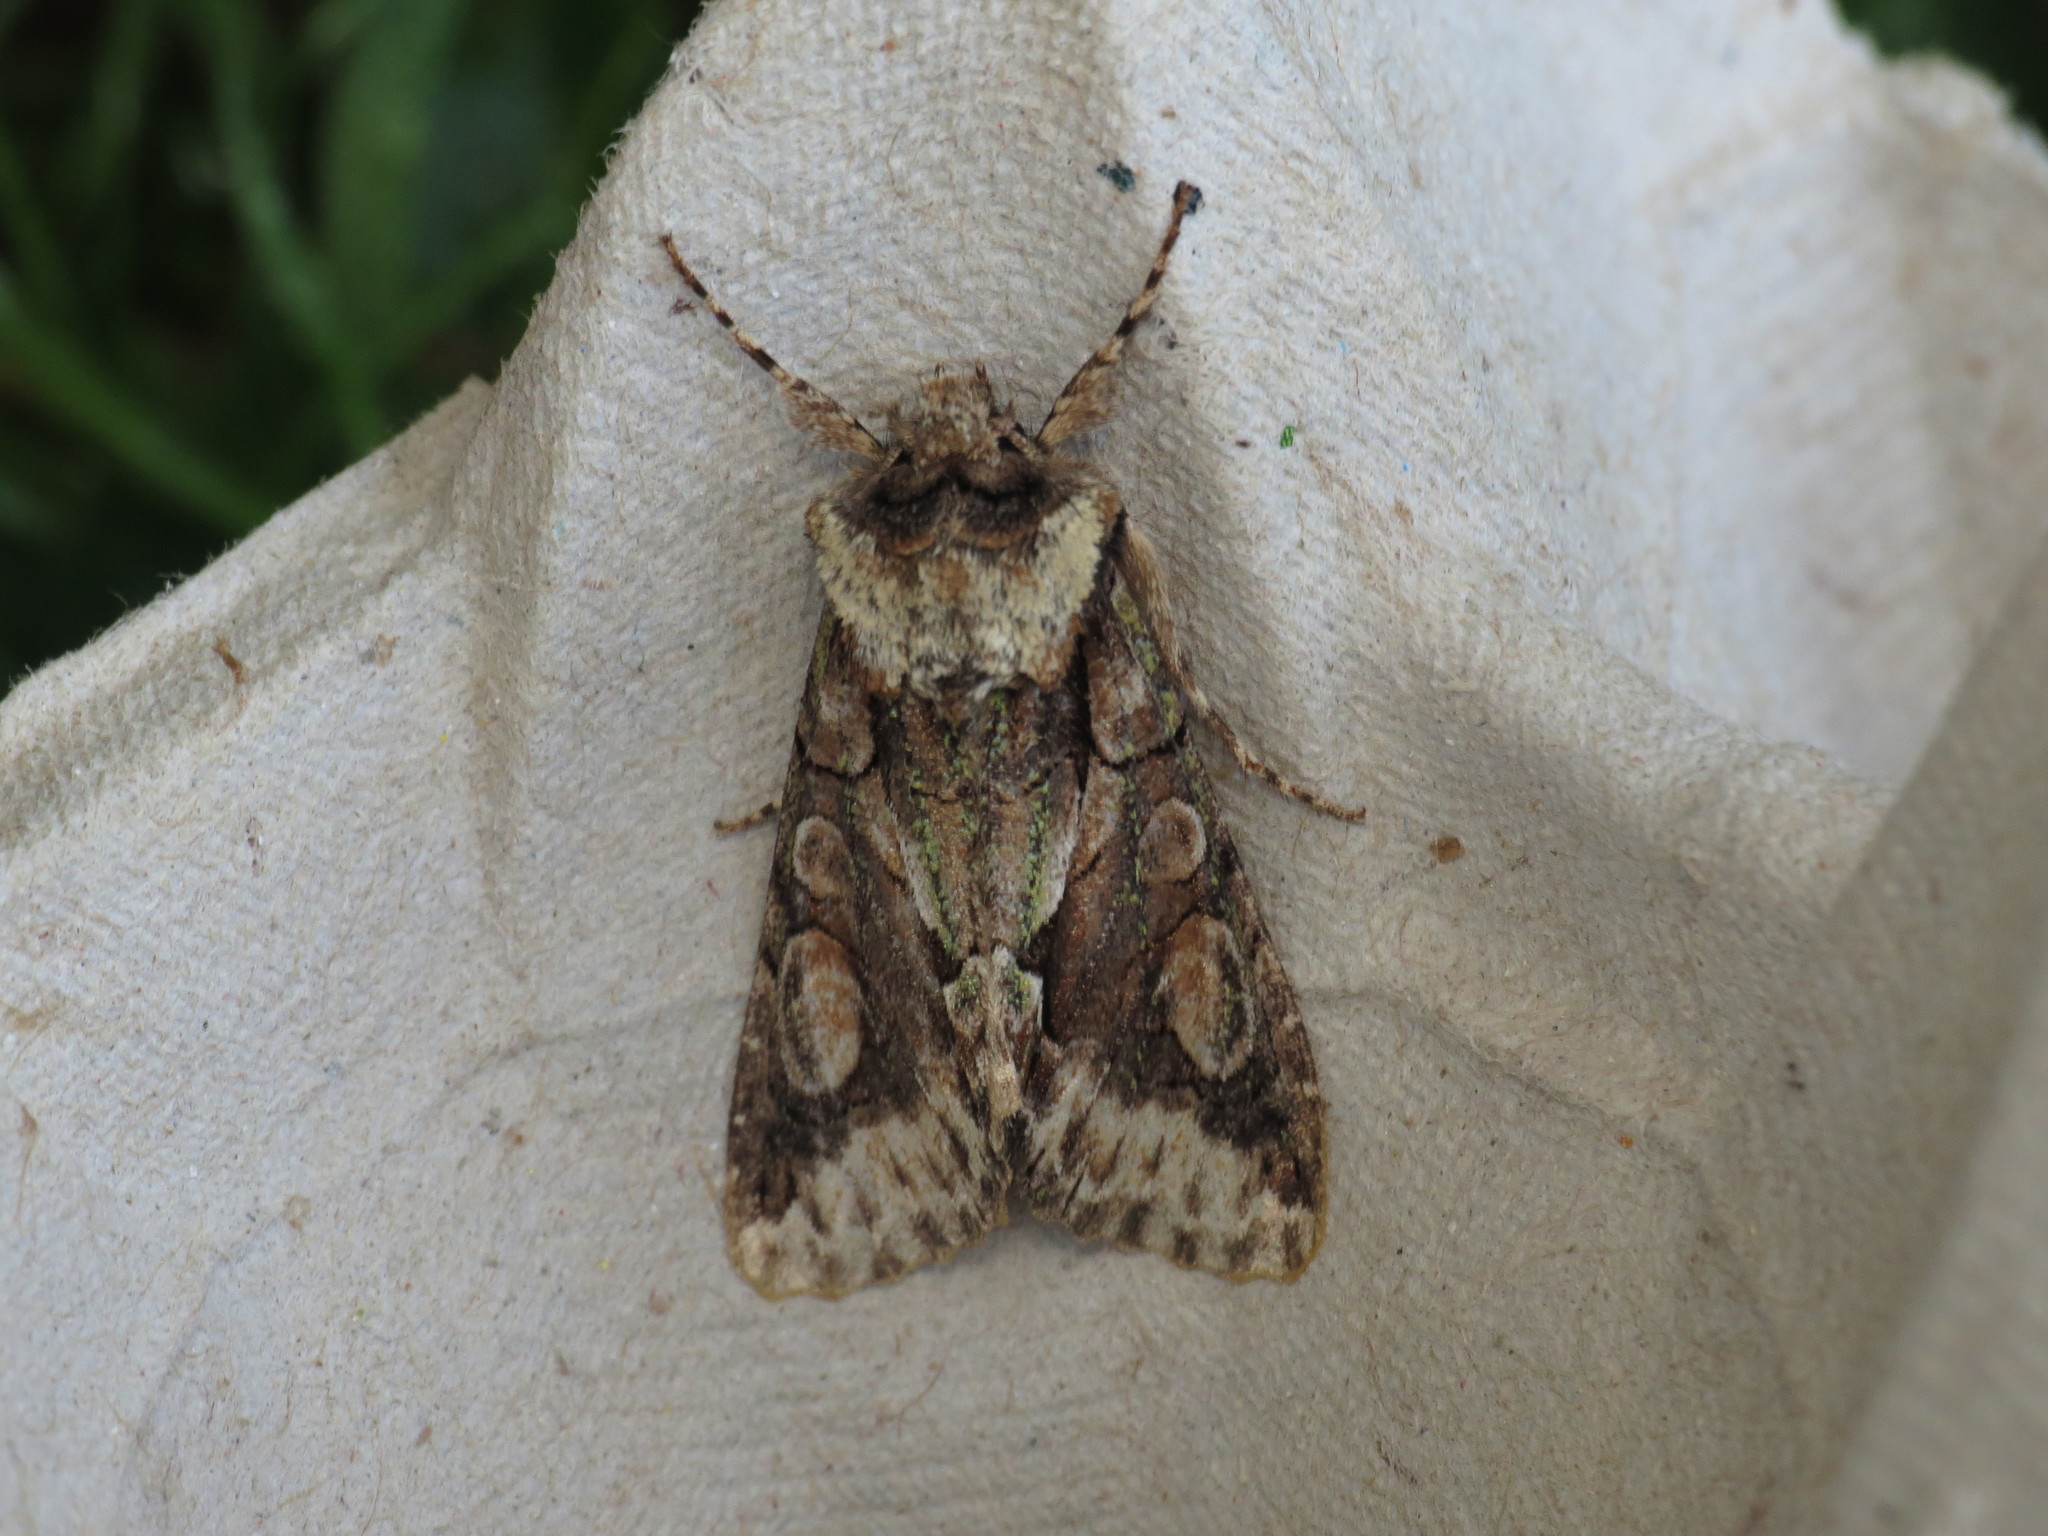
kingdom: Animalia
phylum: Arthropoda
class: Insecta
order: Lepidoptera
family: Noctuidae
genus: Allophyes
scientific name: Allophyes oxyacanthae
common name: Green-brindled crescent
